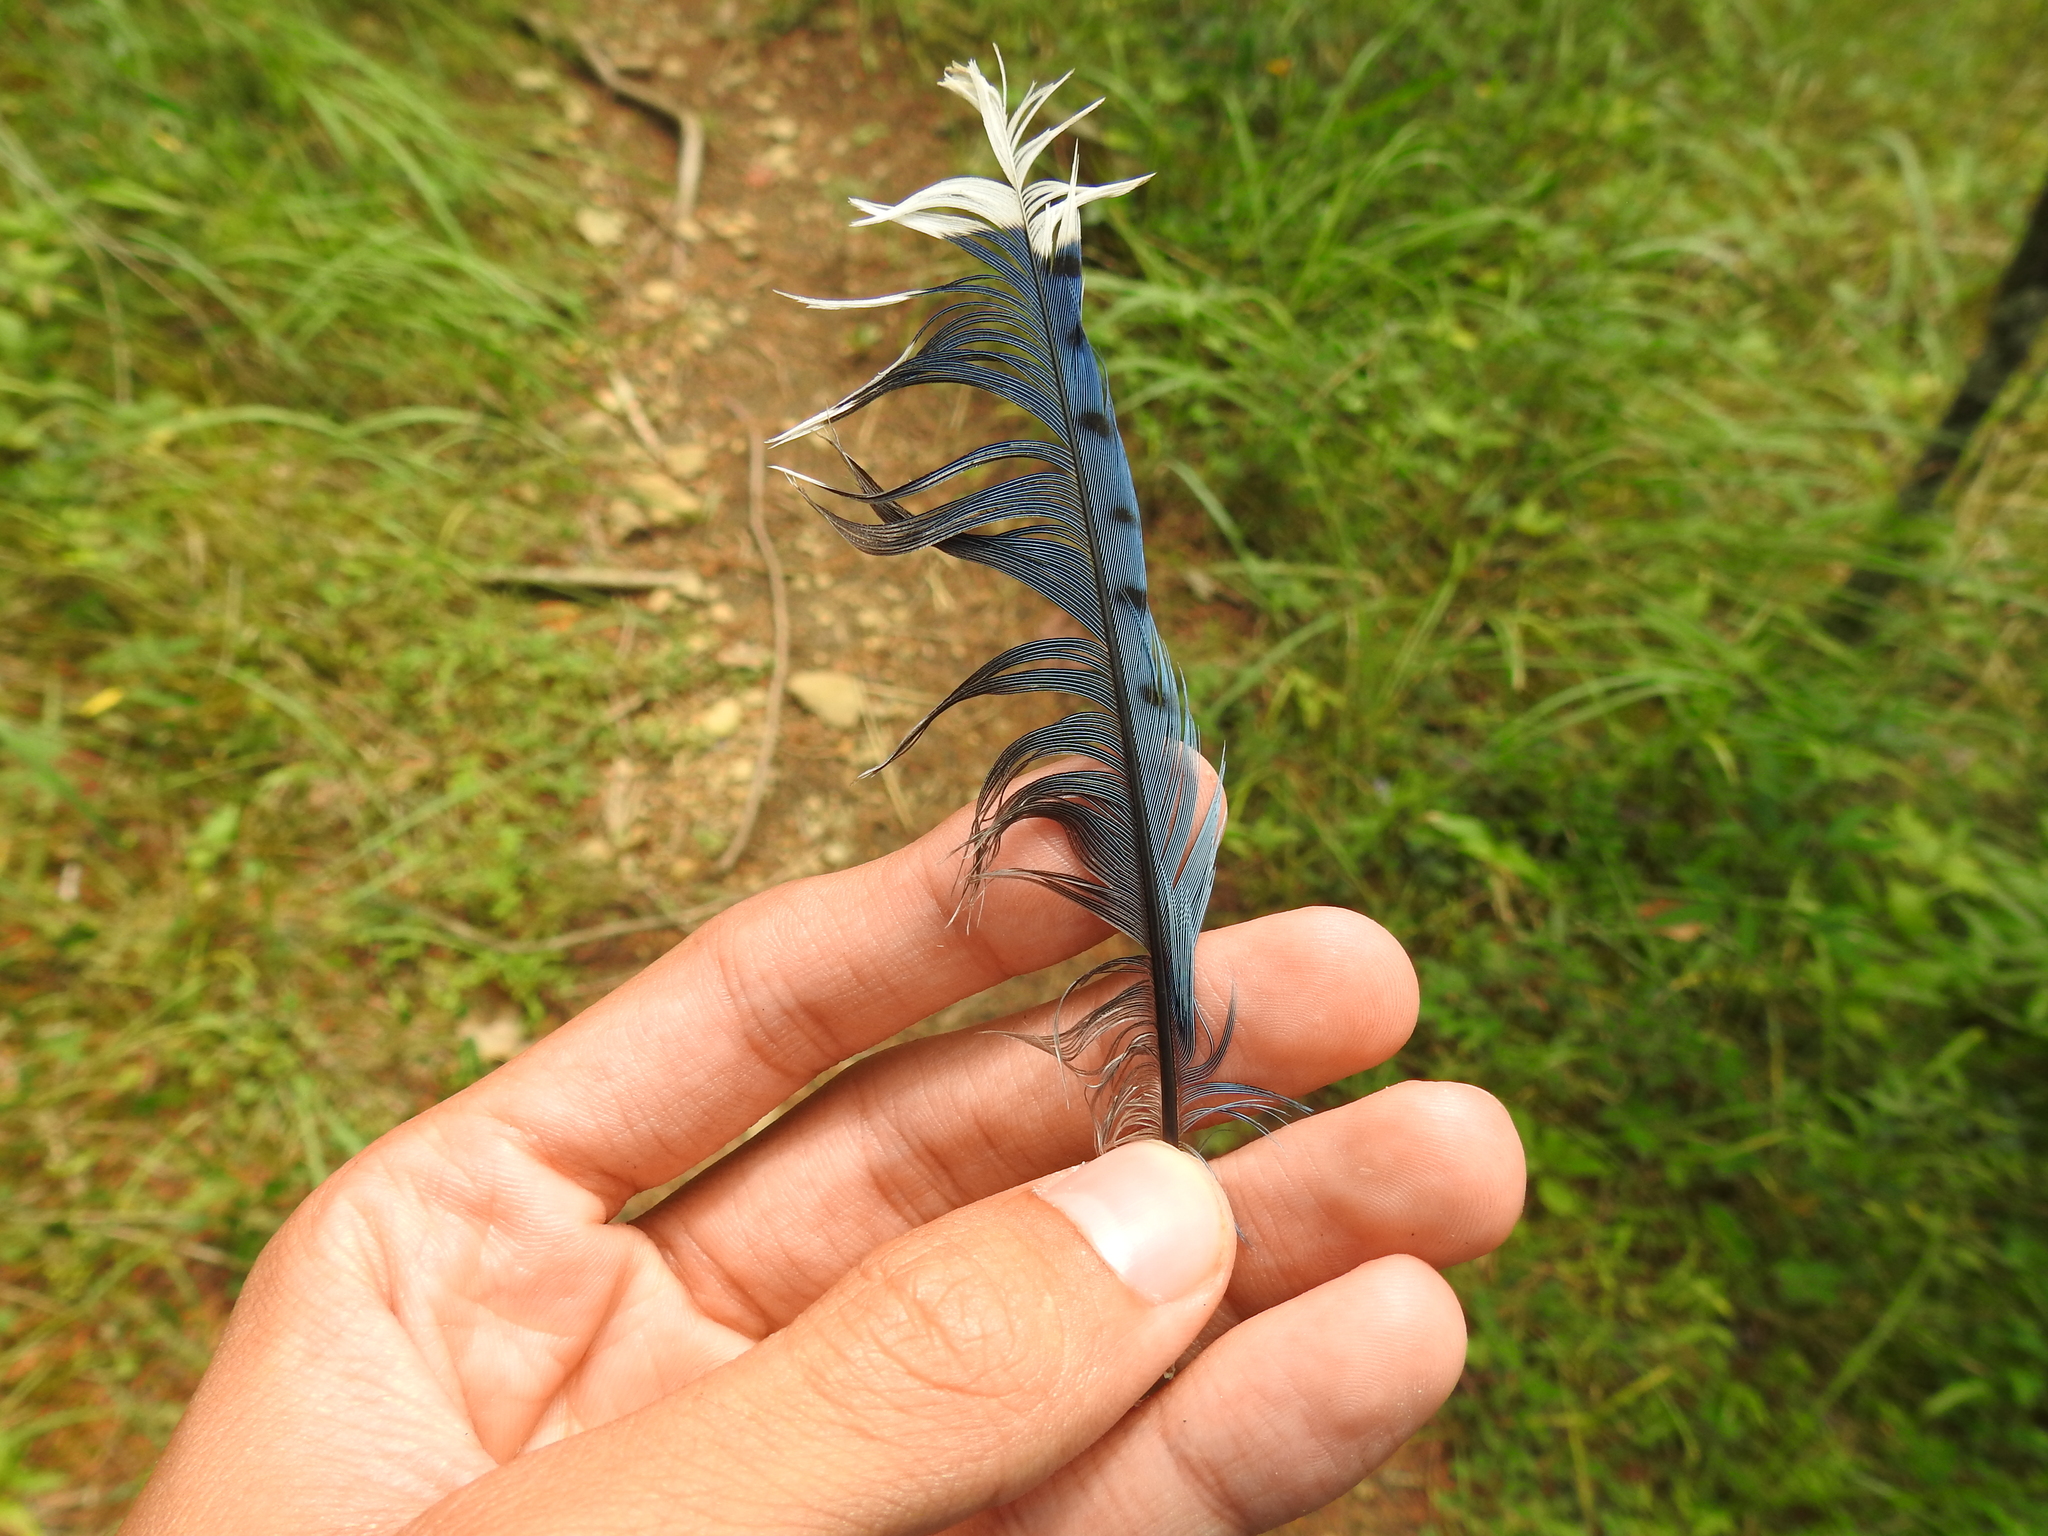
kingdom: Animalia
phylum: Chordata
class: Aves
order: Passeriformes
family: Corvidae
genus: Cyanocitta
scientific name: Cyanocitta cristata
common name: Blue jay
